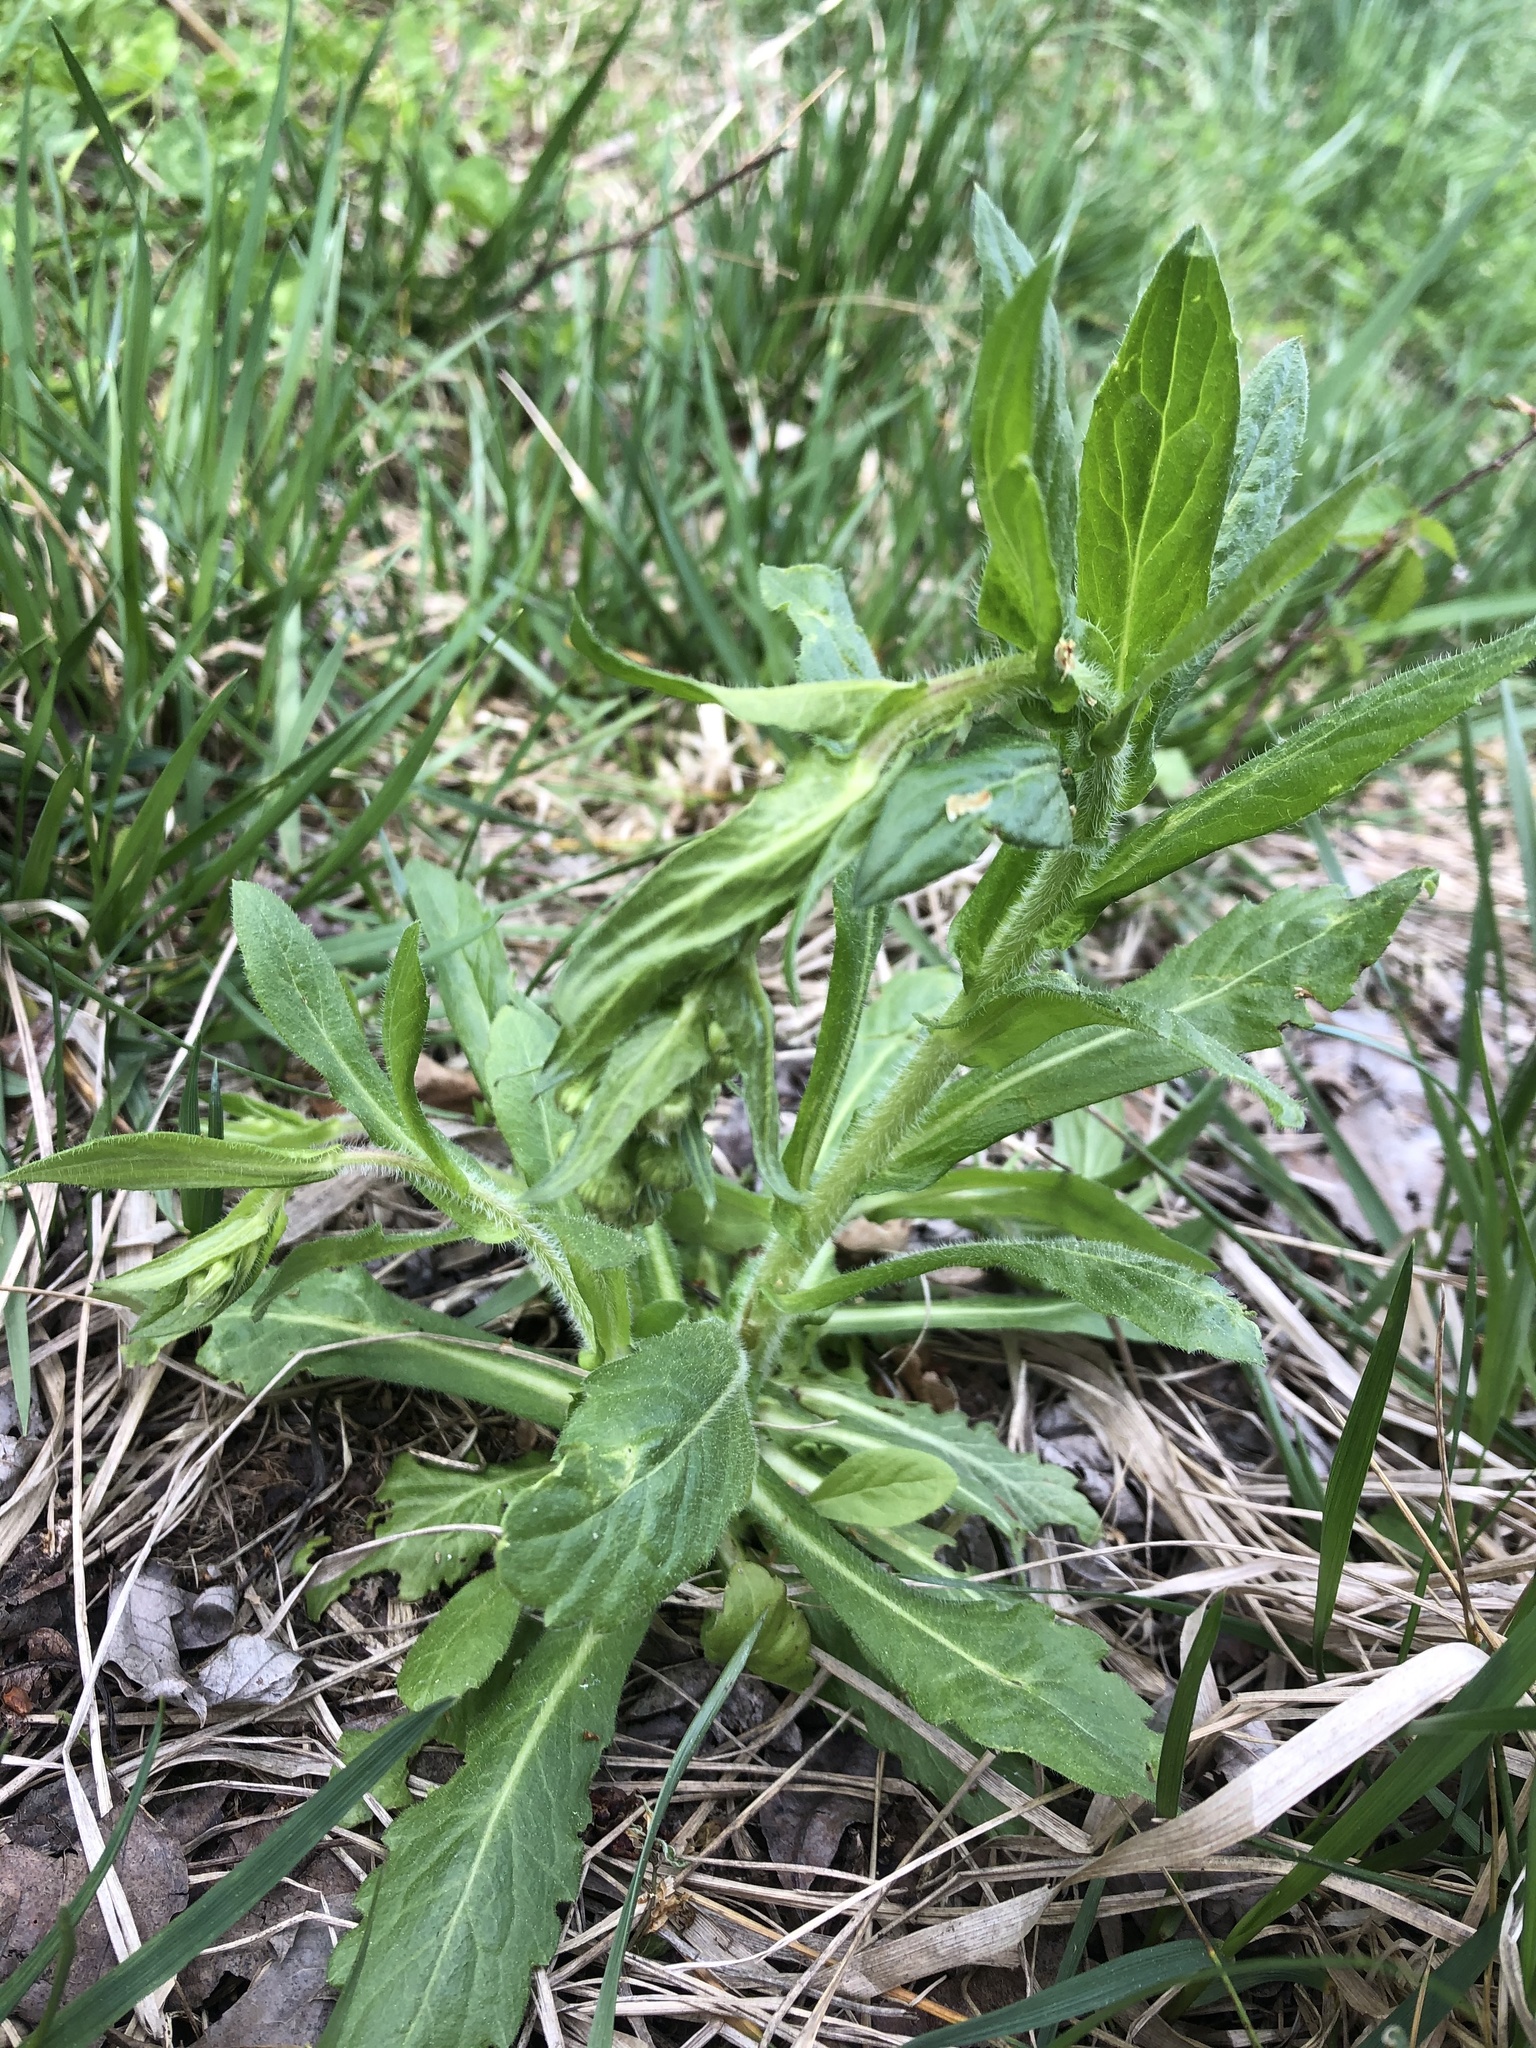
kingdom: Plantae
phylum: Tracheophyta
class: Magnoliopsida
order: Asterales
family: Asteraceae
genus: Erigeron
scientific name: Erigeron philadelphicus
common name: Robin's-plantain
